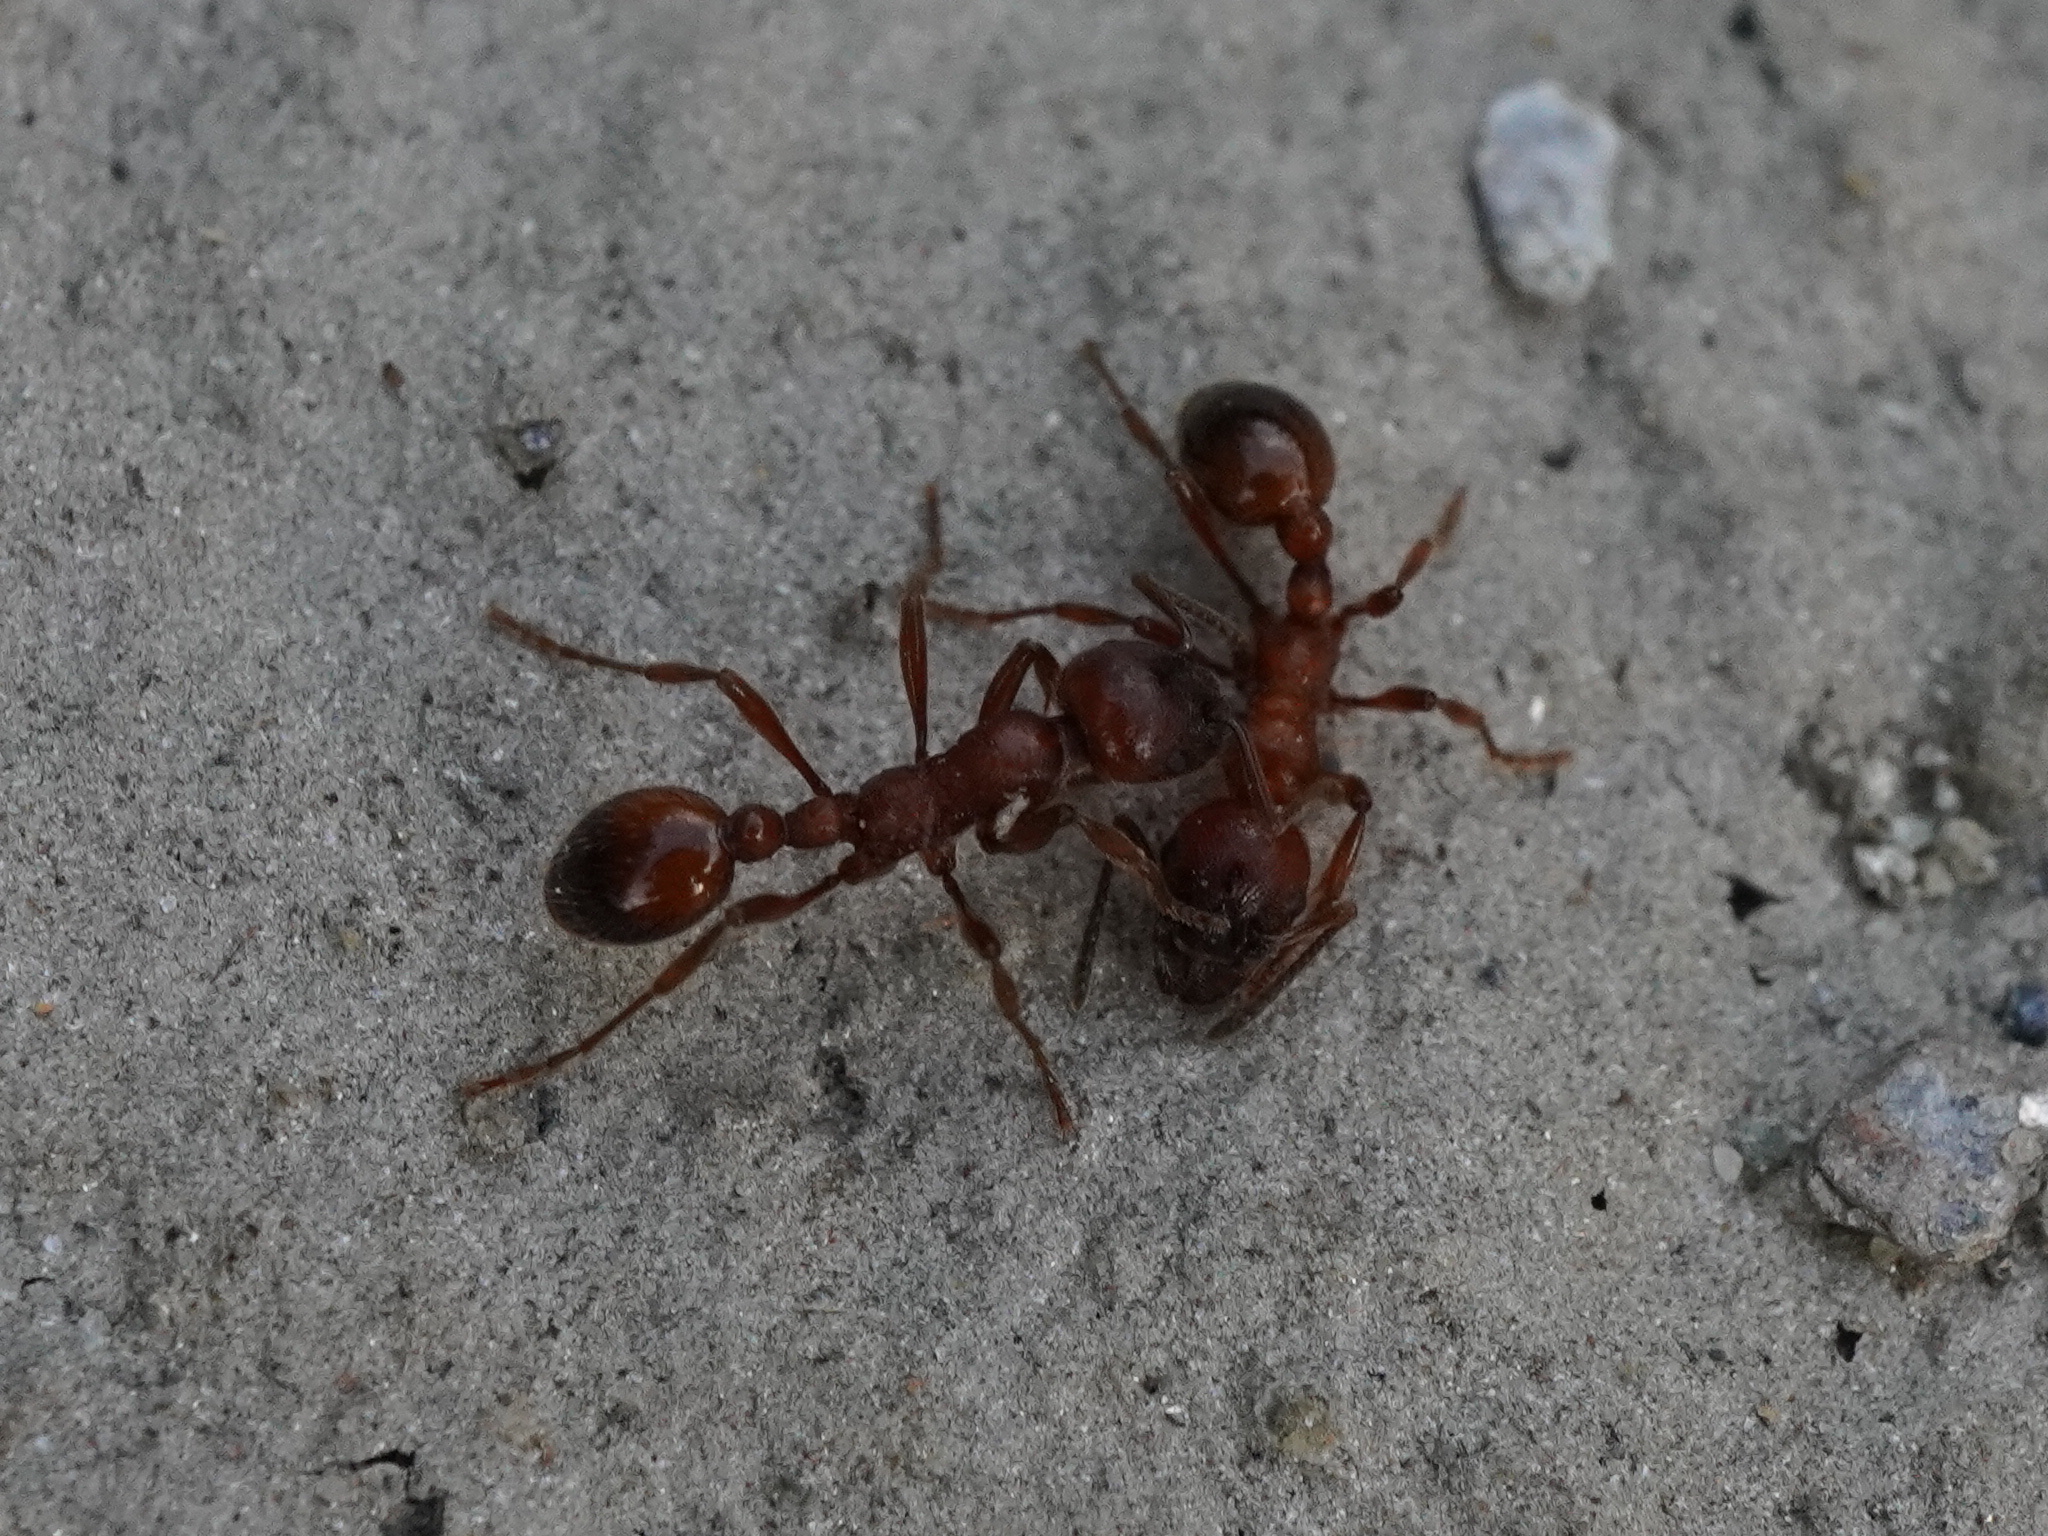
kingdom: Animalia
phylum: Arthropoda
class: Insecta
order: Hymenoptera
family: Formicidae
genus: Manica
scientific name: Manica rubida
